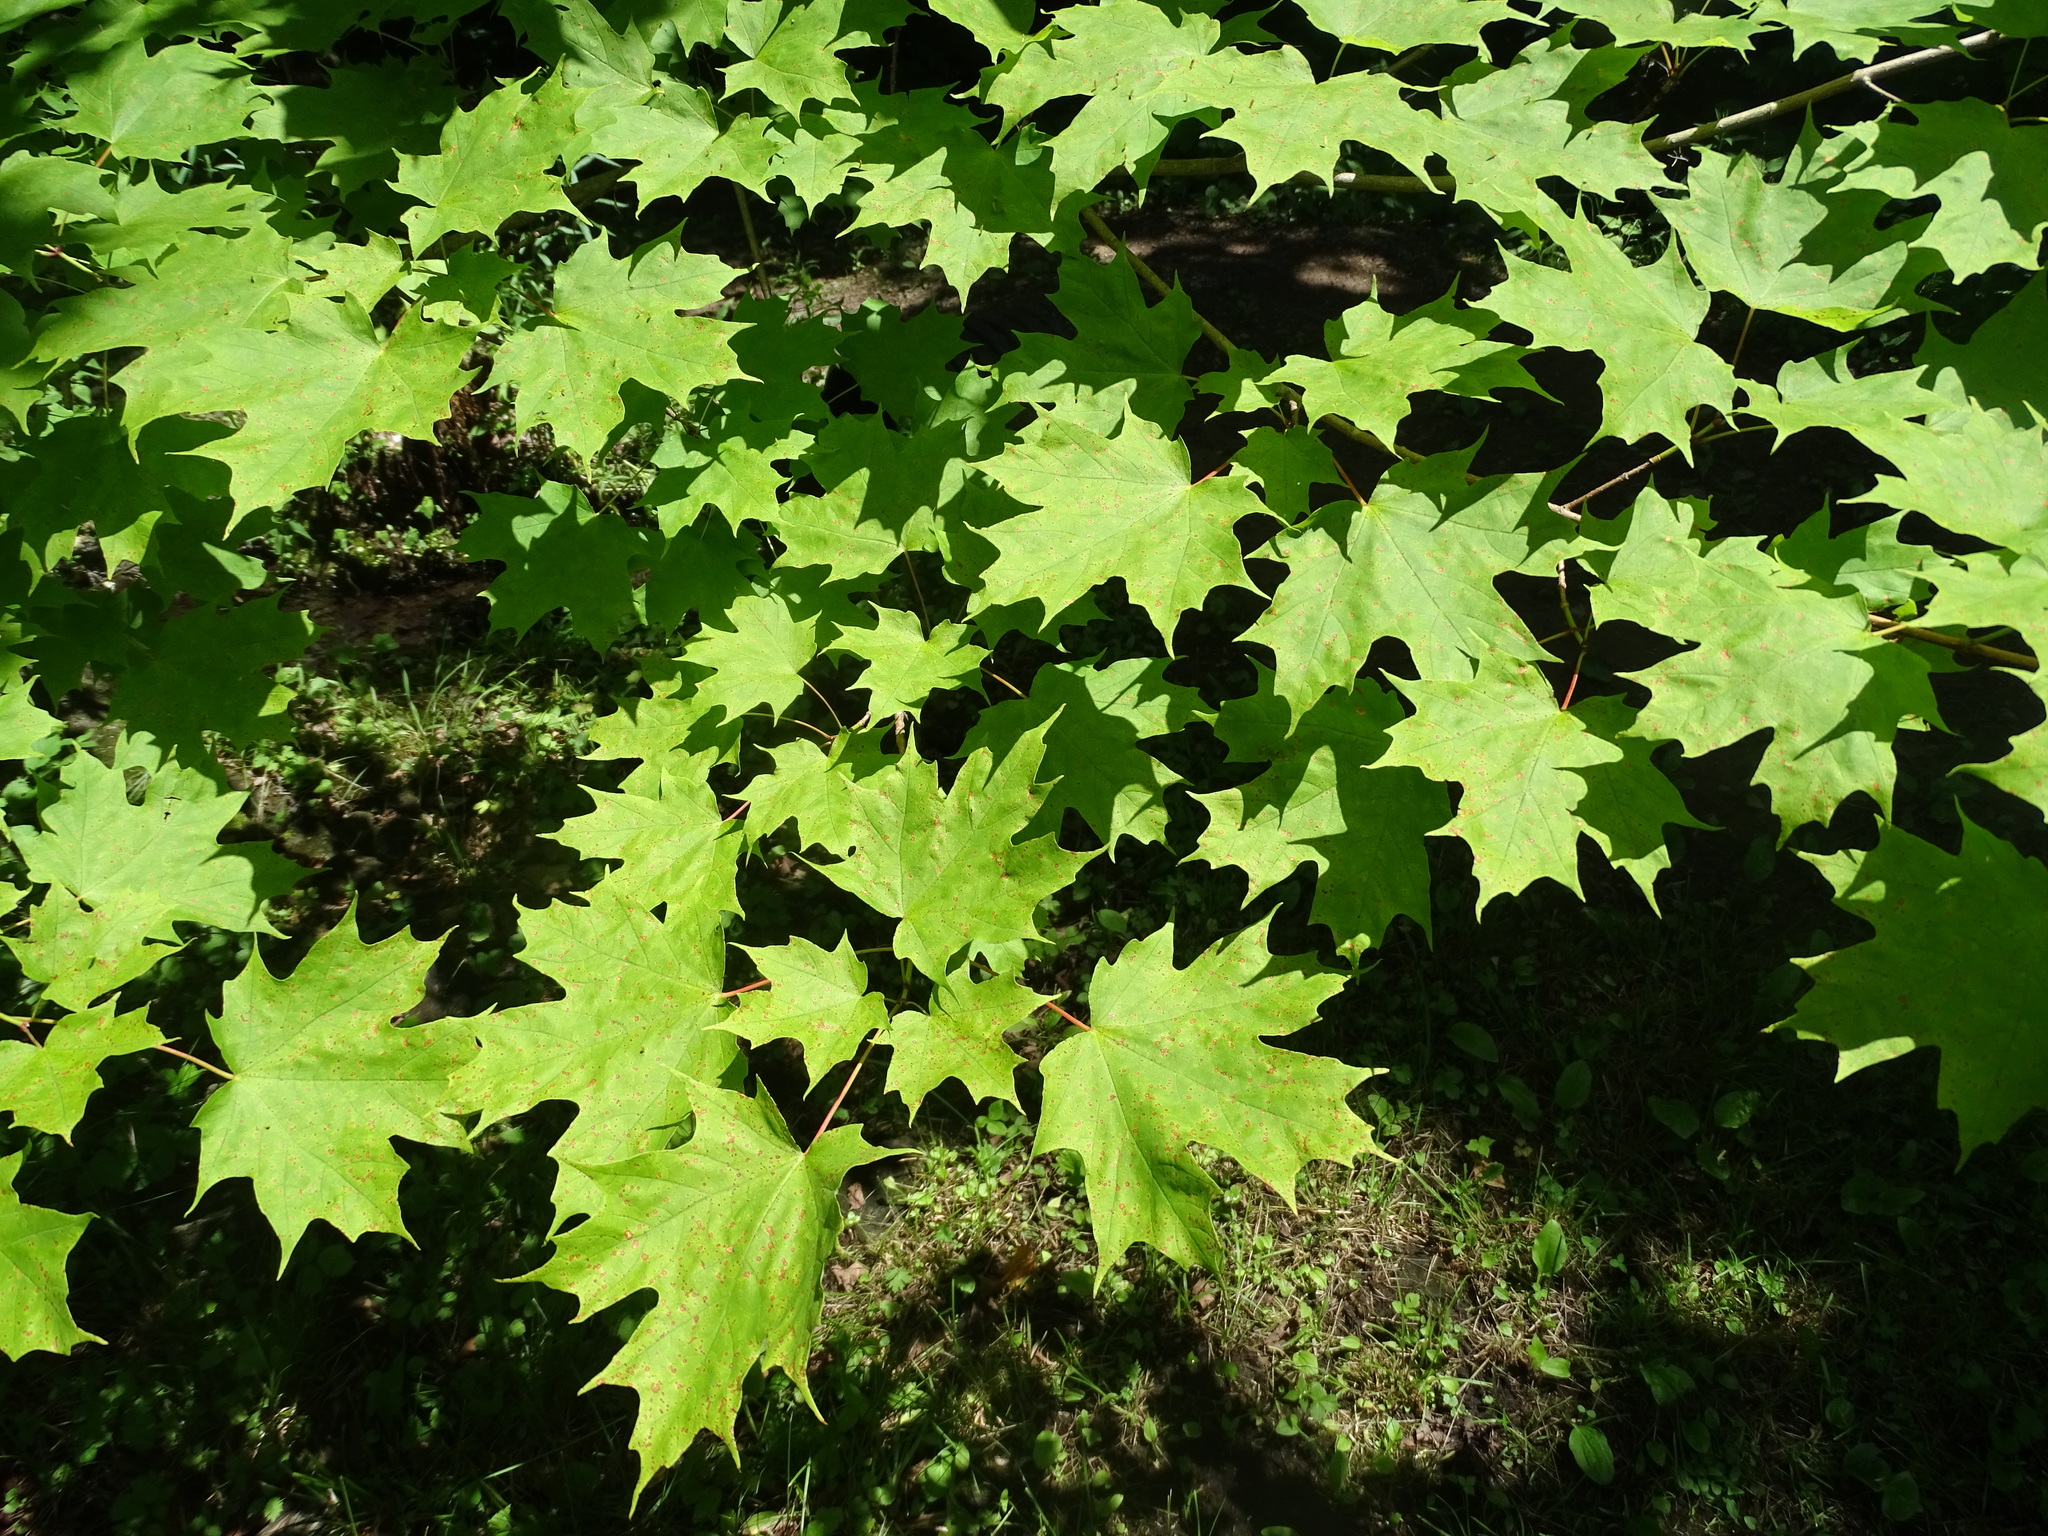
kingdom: Plantae
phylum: Tracheophyta
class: Magnoliopsida
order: Sapindales
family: Sapindaceae
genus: Acer
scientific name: Acer saccharum
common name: Sugar maple
